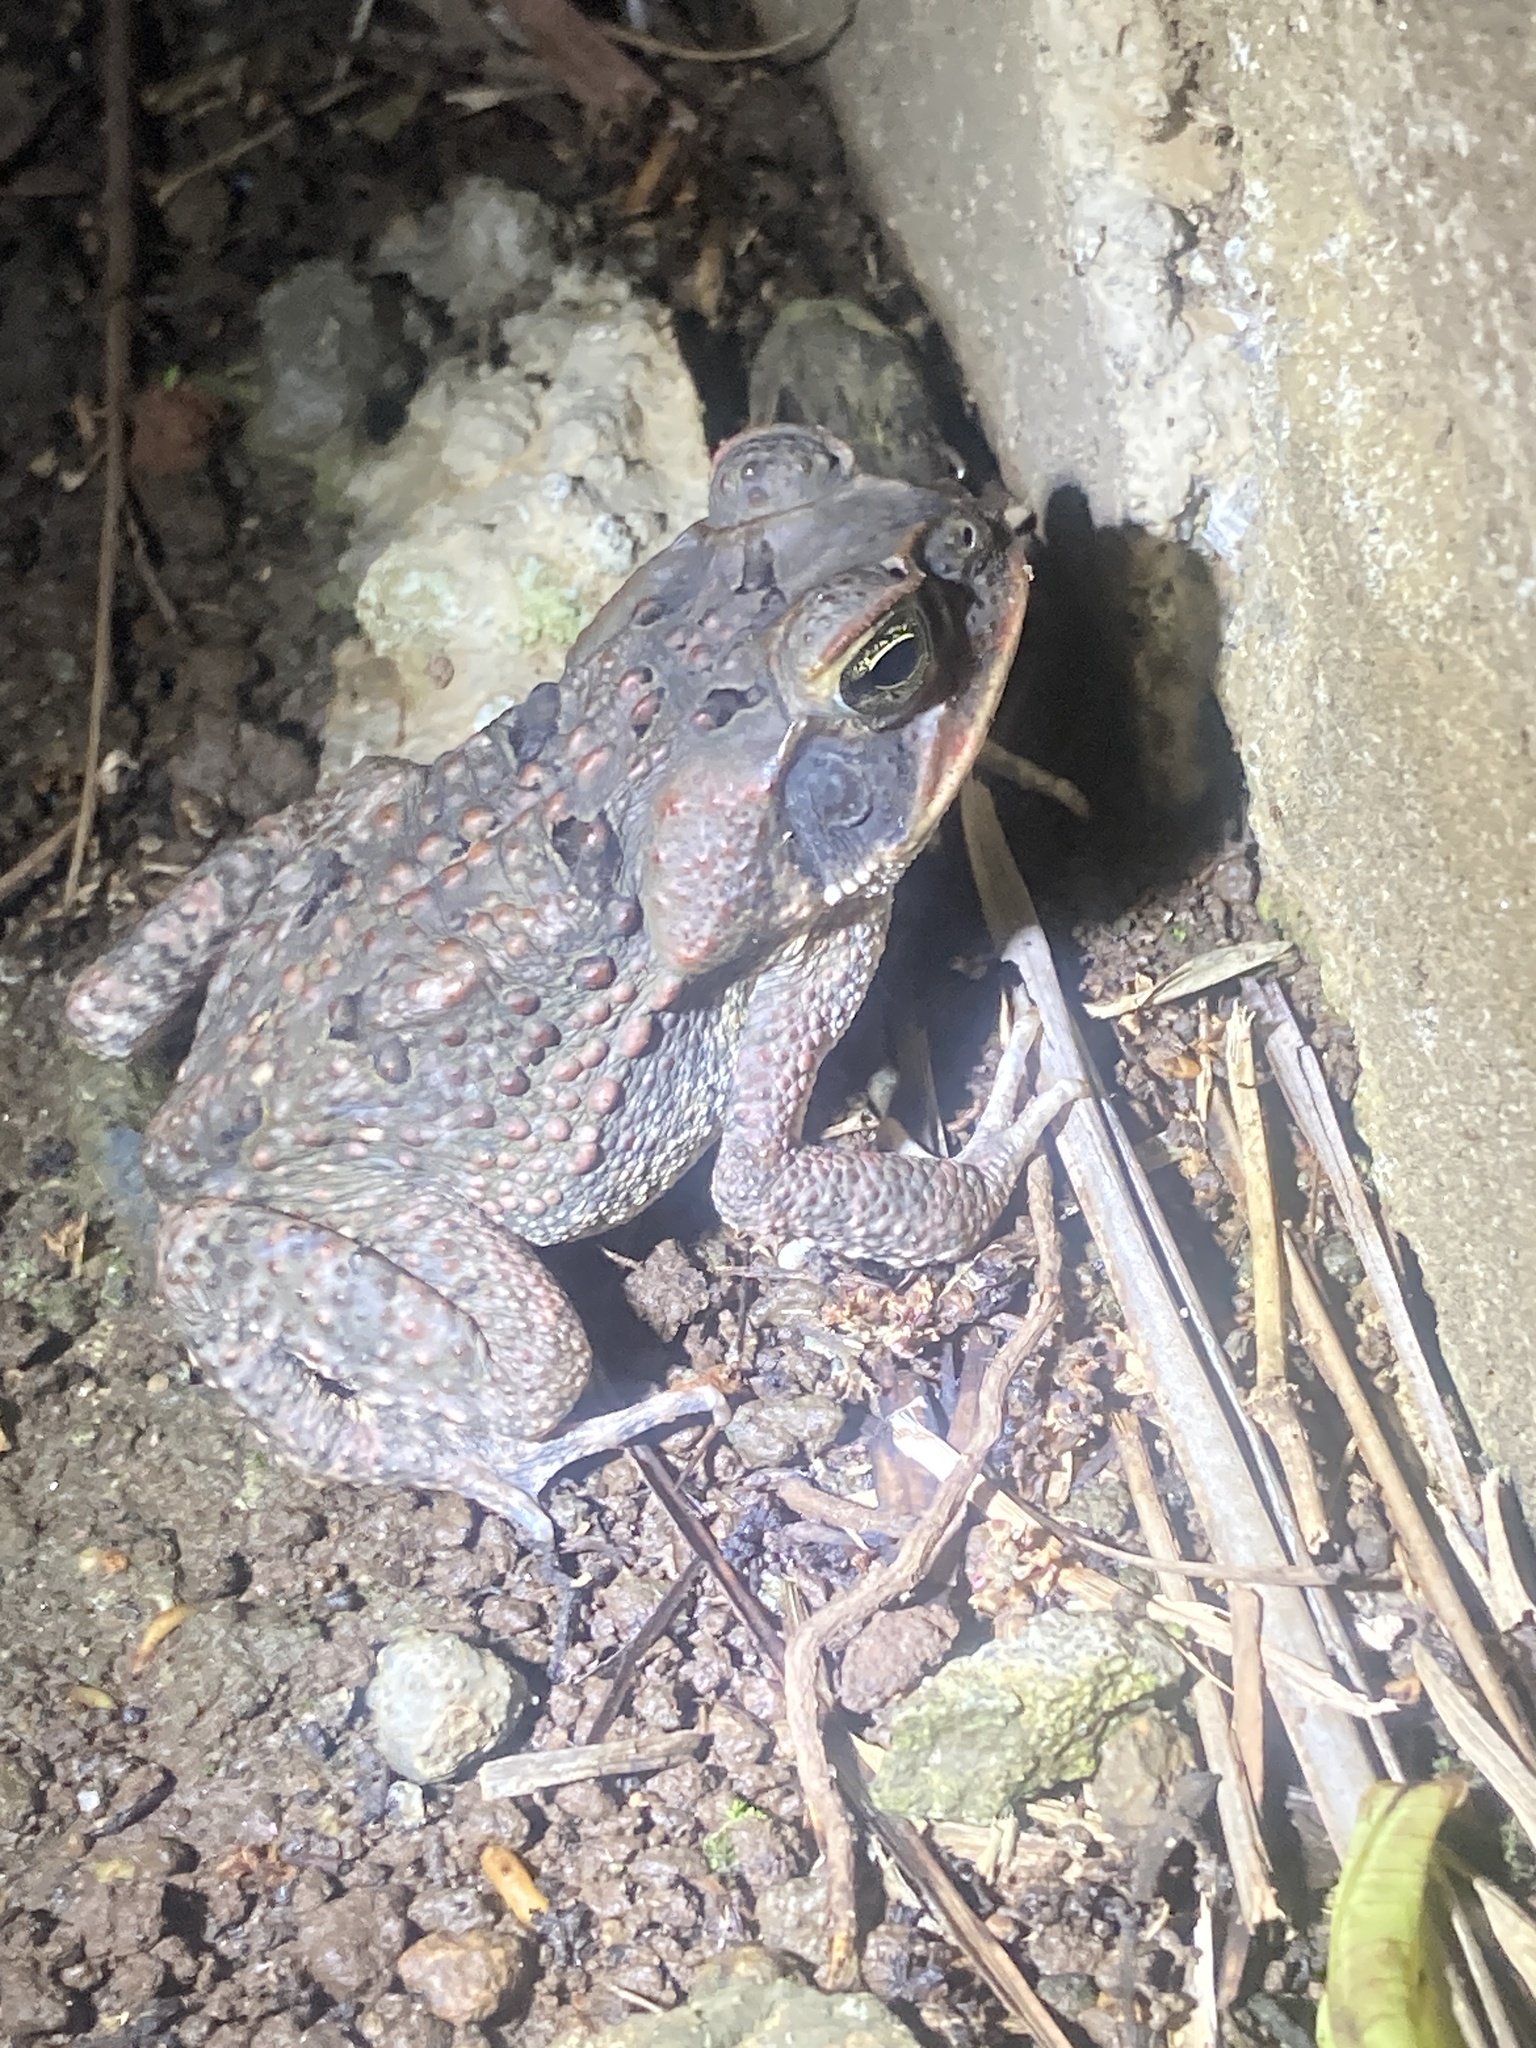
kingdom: Animalia
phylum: Chordata
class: Amphibia
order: Anura
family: Bufonidae
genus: Rhinella
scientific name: Rhinella marina
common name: Cane toad
